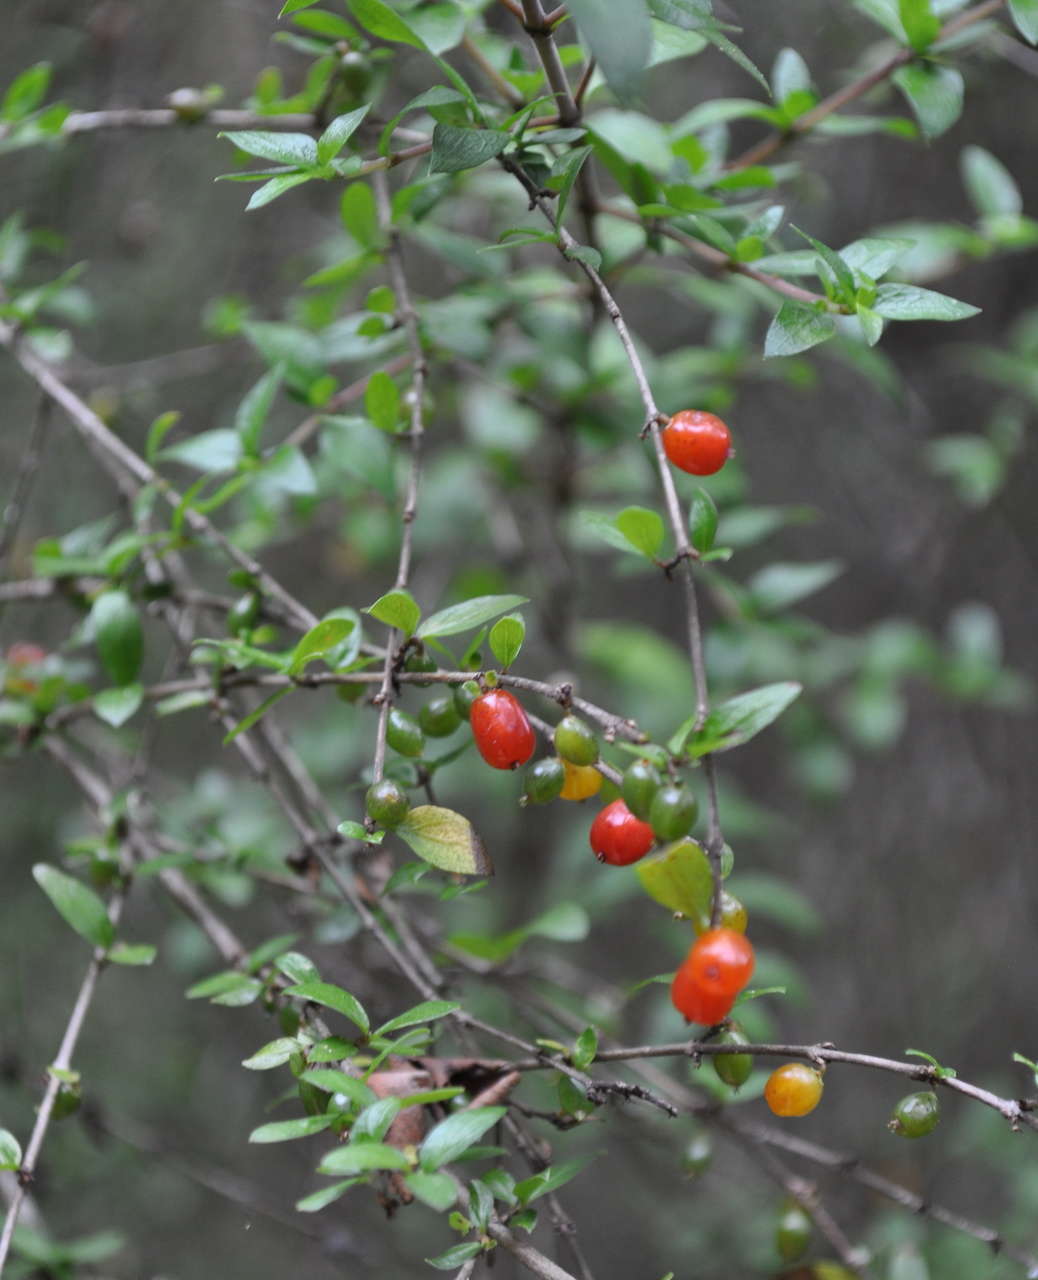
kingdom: Plantae
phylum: Tracheophyta
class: Magnoliopsida
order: Gentianales
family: Rubiaceae
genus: Coprosma
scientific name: Coprosma quadrifida
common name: Prickly currantbush
